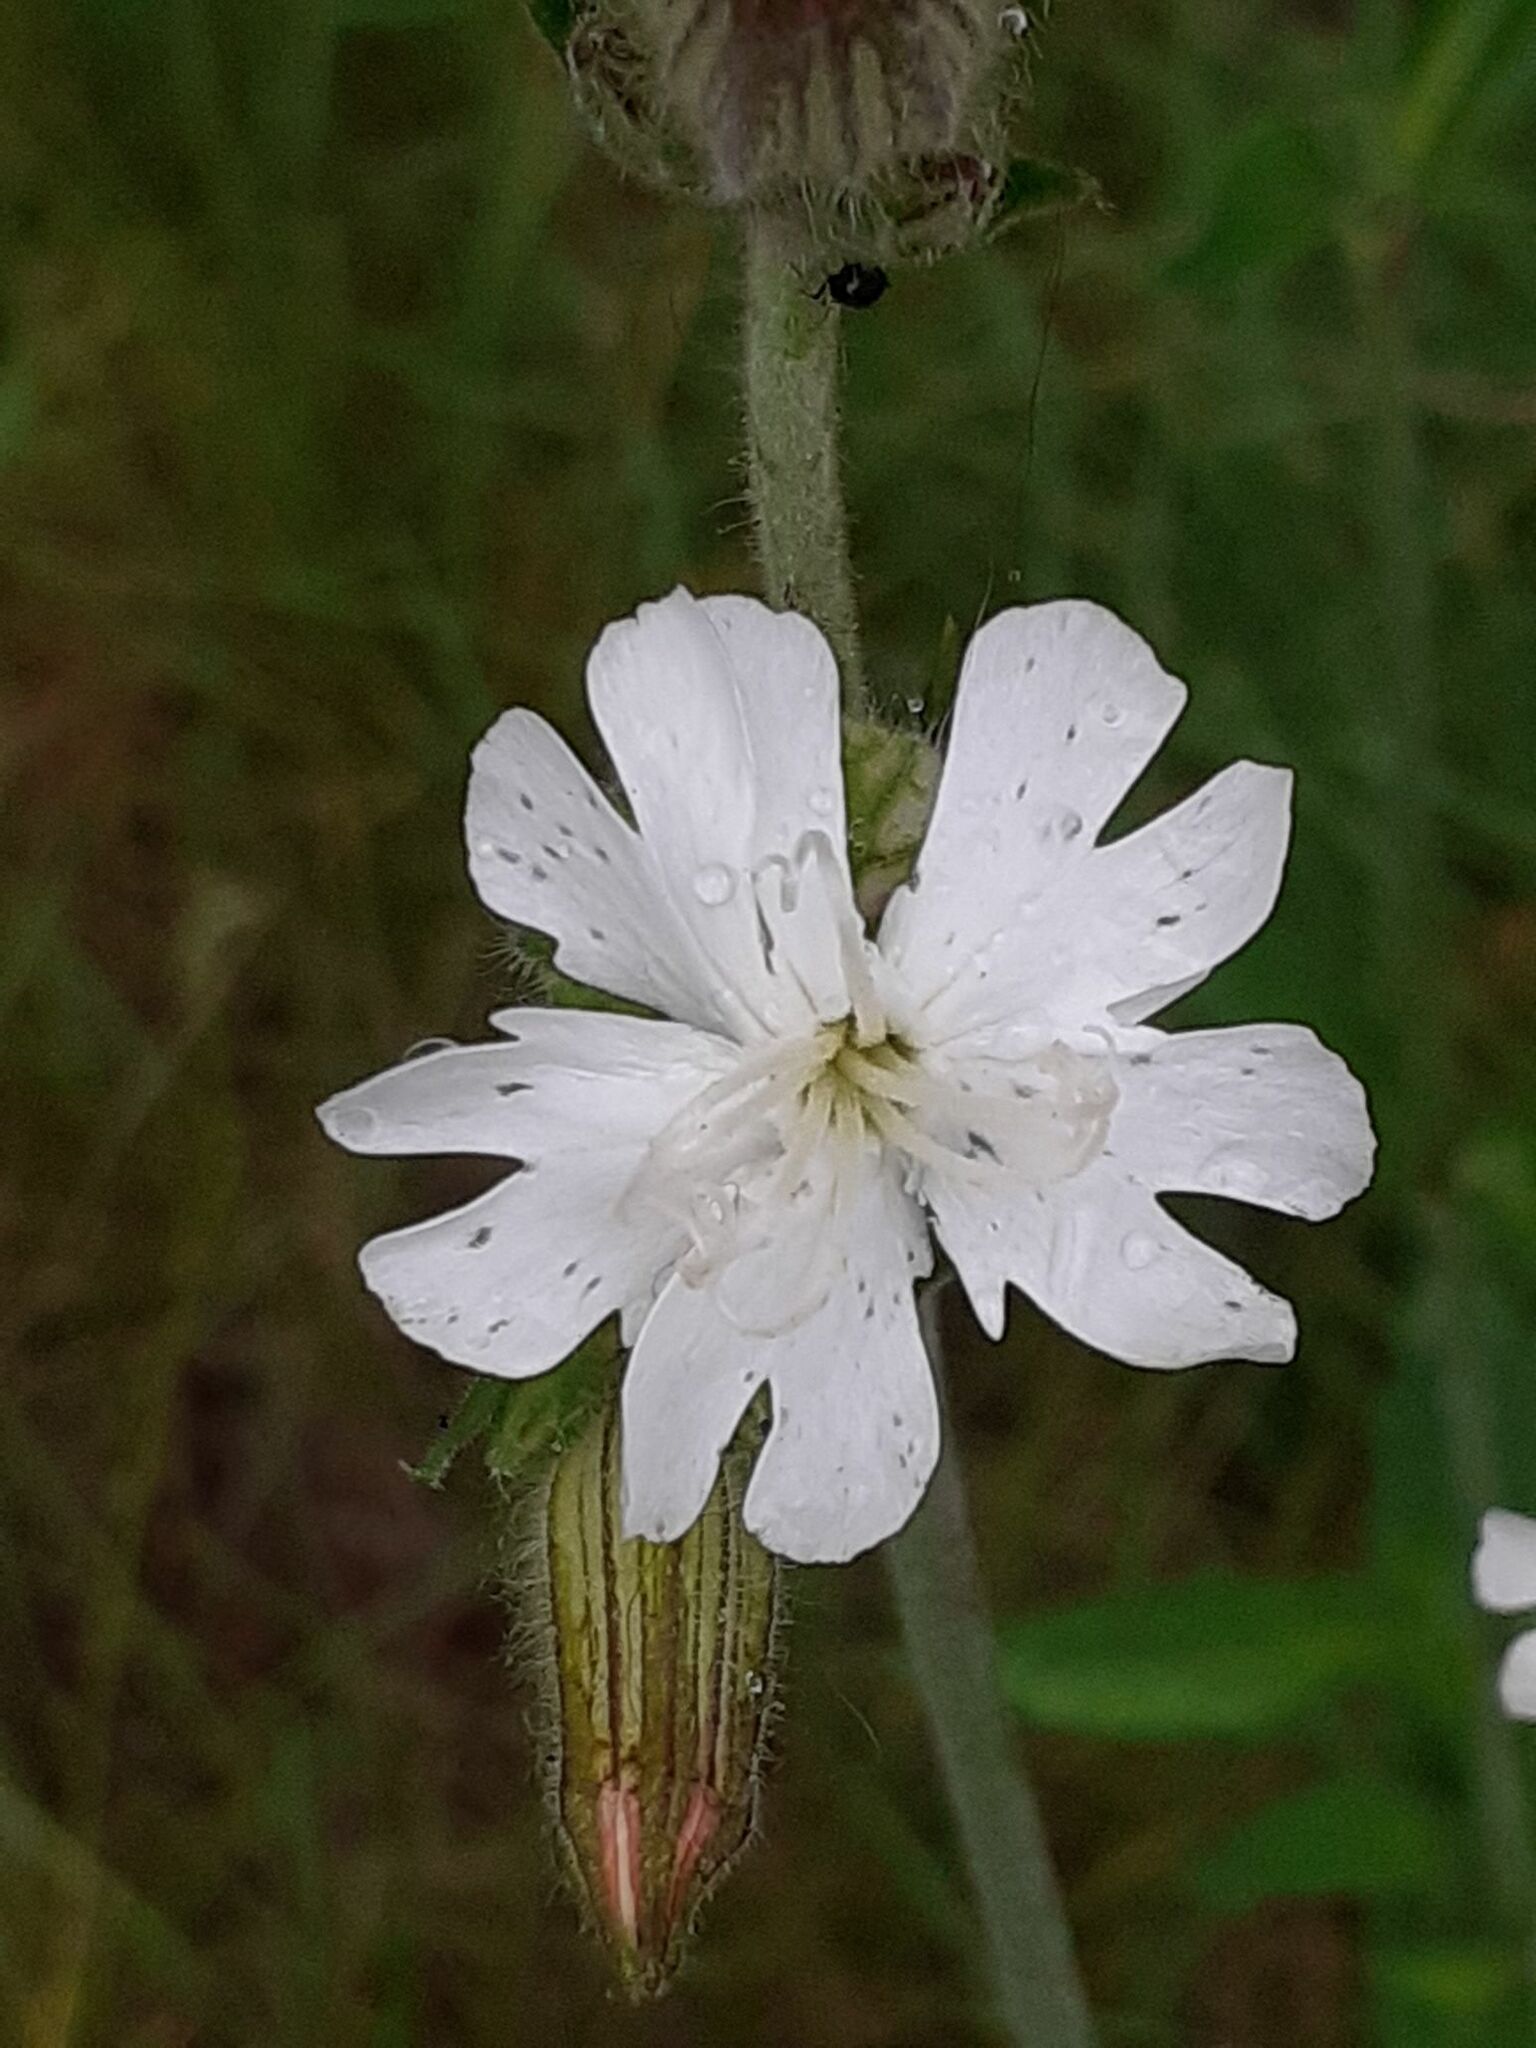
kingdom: Plantae
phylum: Tracheophyta
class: Magnoliopsida
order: Caryophyllales
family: Caryophyllaceae
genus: Silene
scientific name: Silene latifolia
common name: White campion
